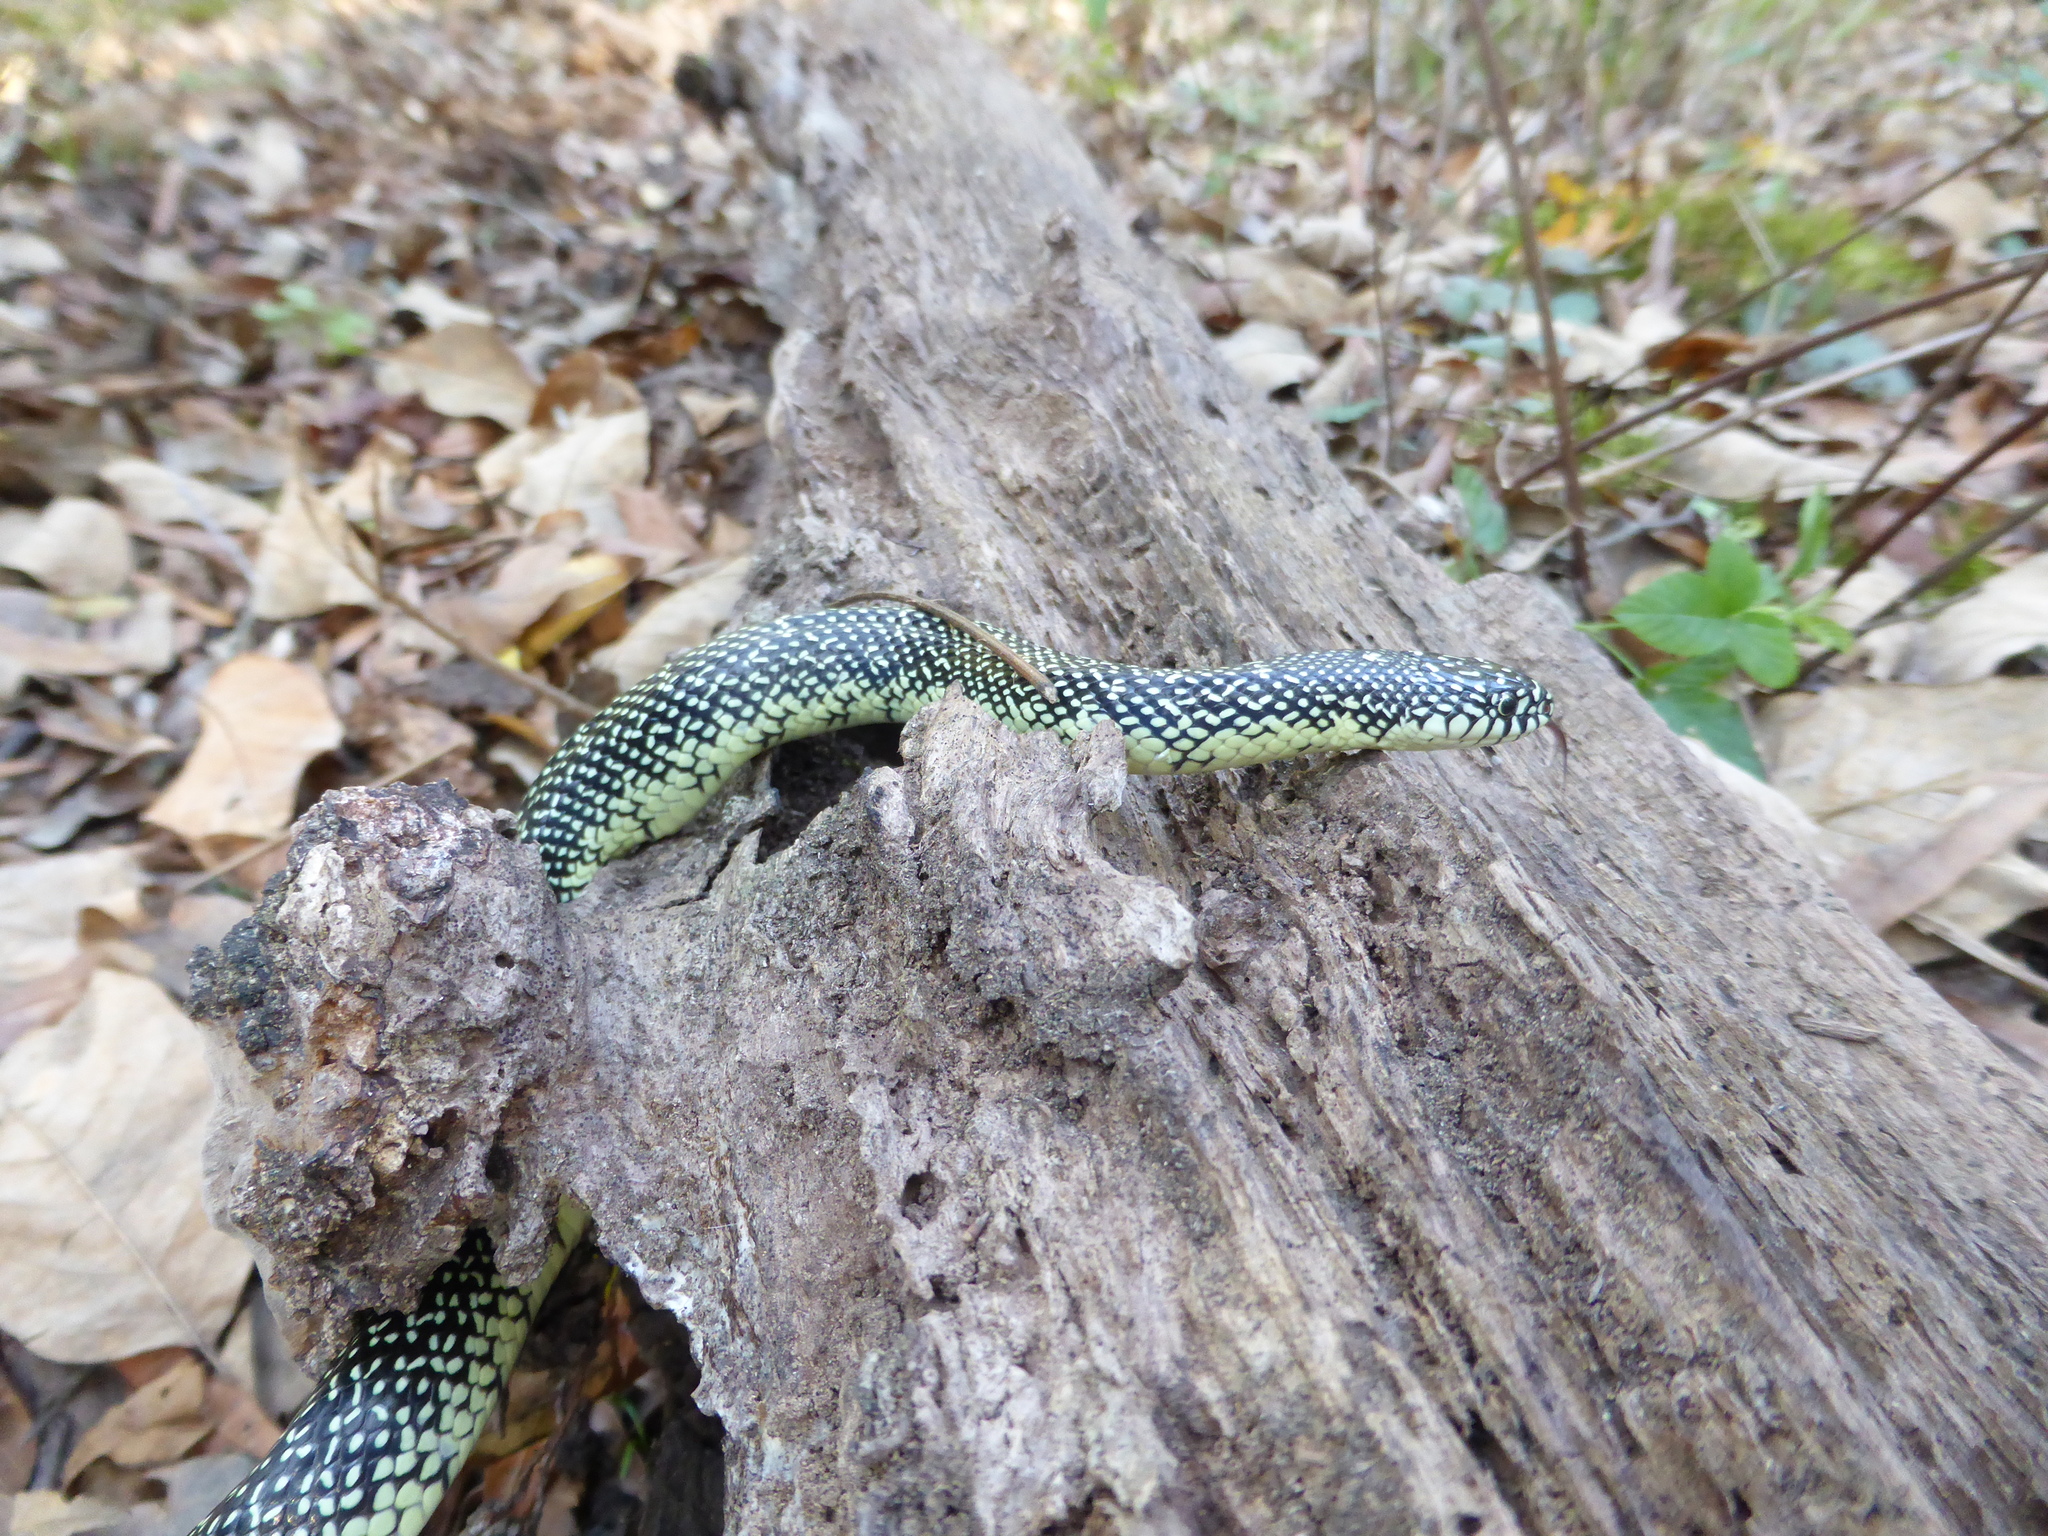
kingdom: Animalia
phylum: Chordata
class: Squamata
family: Colubridae
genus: Lampropeltis
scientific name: Lampropeltis holbrooki
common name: Speckled kingsnake
